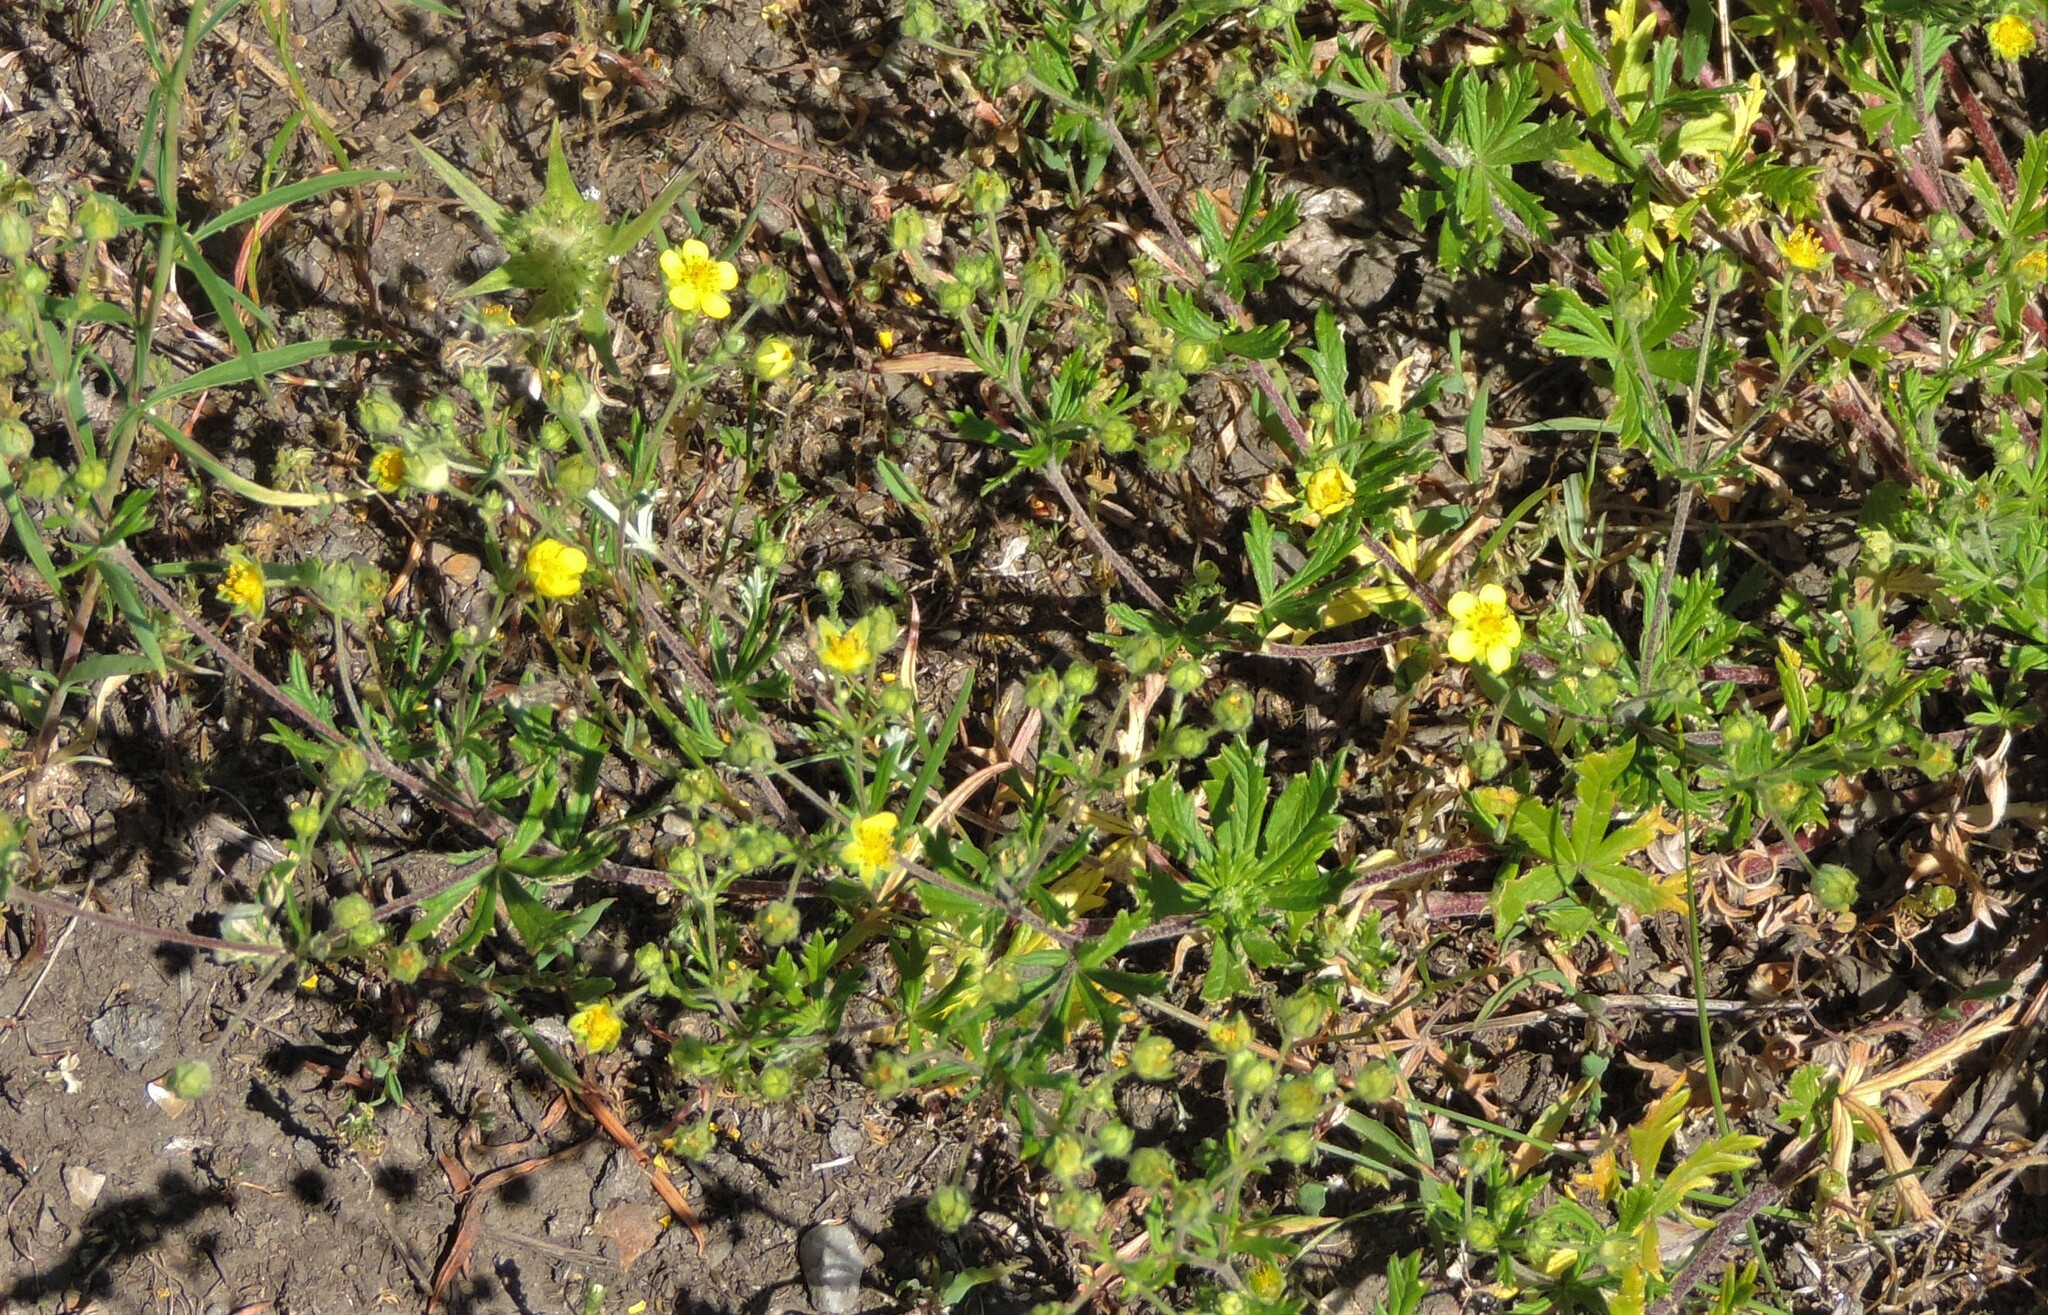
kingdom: Plantae
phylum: Tracheophyta
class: Magnoliopsida
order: Rosales
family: Rosaceae
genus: Potentilla
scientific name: Potentilla argentea
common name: Hoary cinquefoil
